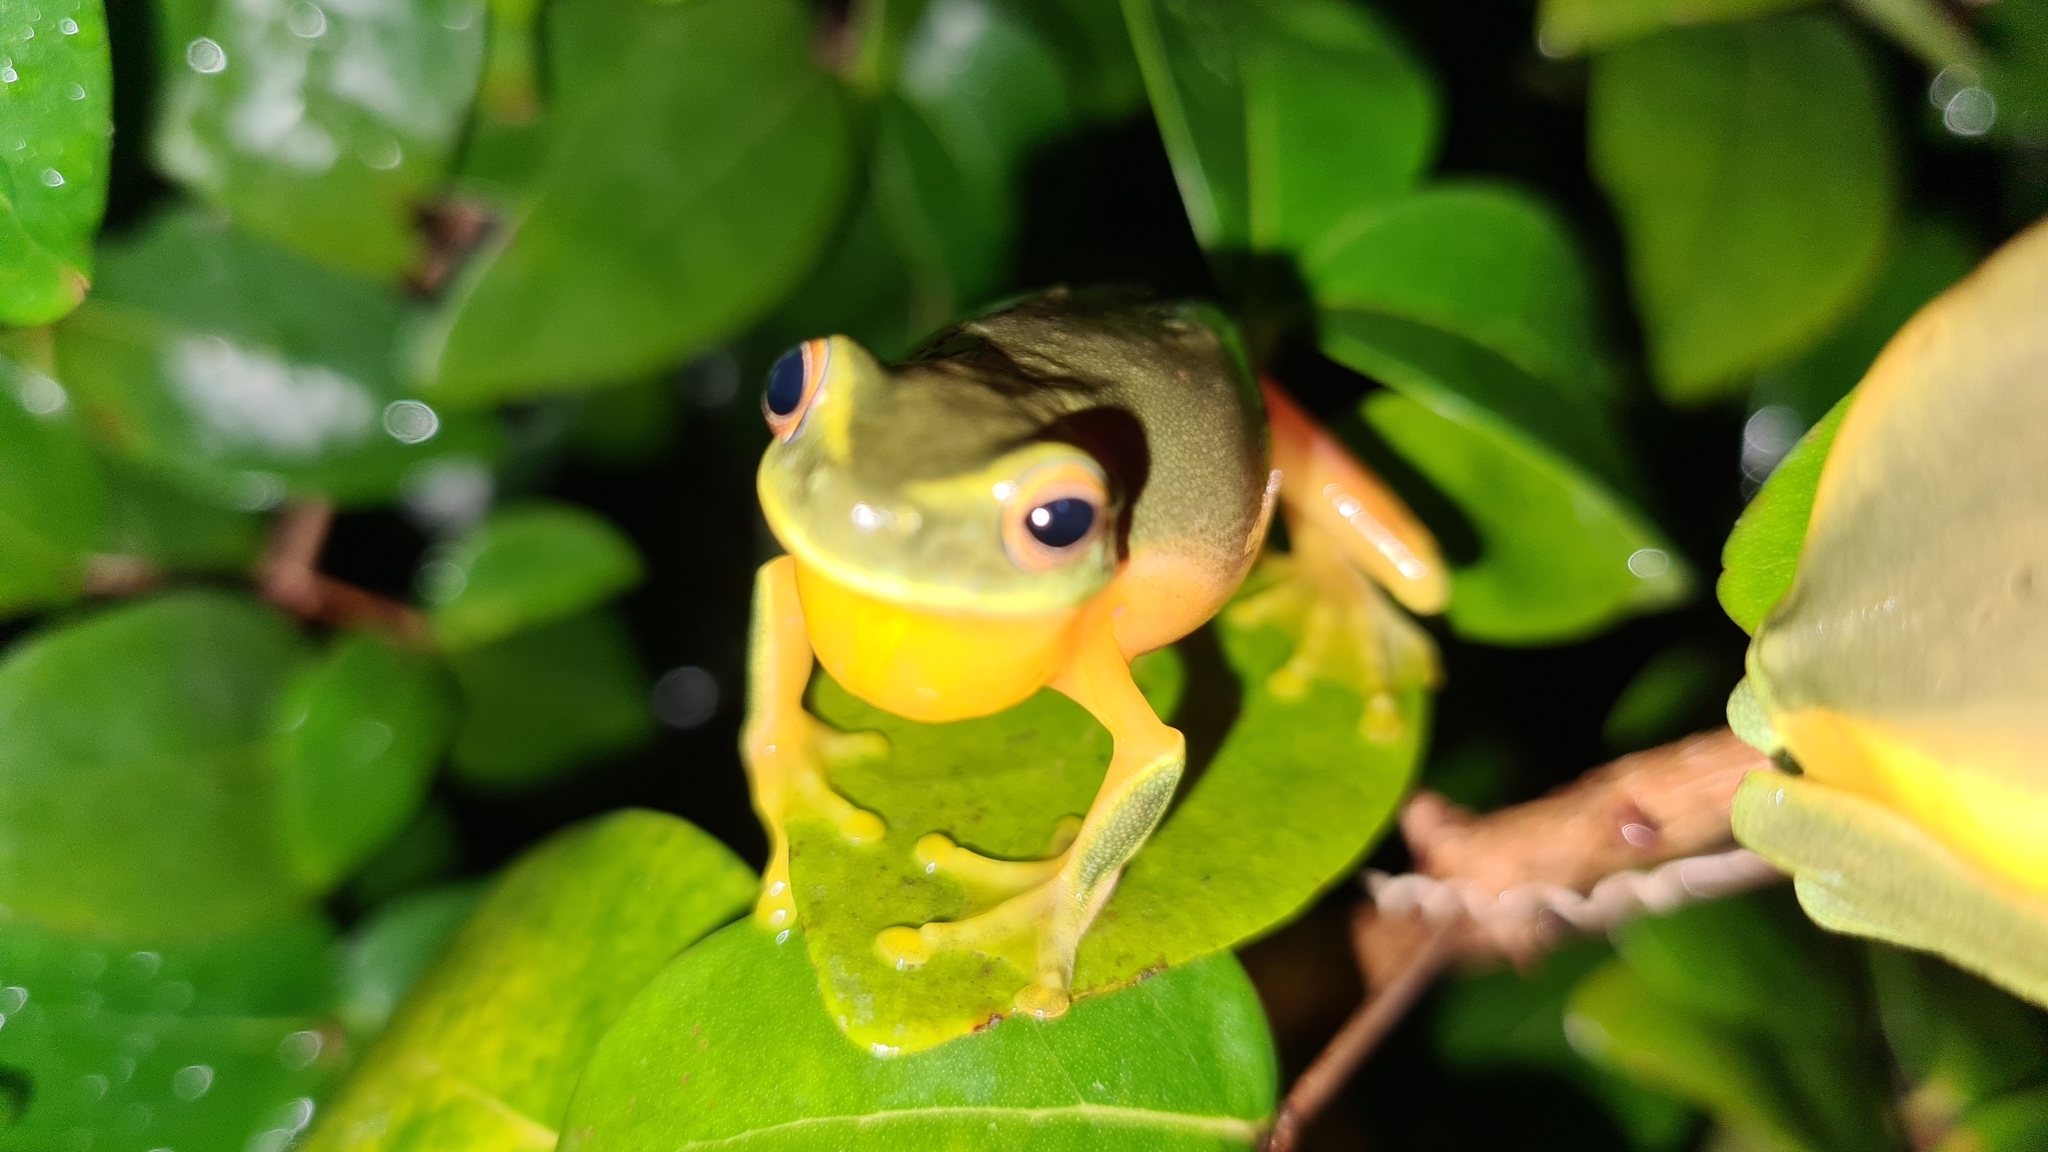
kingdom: Animalia
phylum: Chordata
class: Amphibia
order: Anura
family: Pelodryadidae
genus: Ranoidea
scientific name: Ranoidea gracilenta
